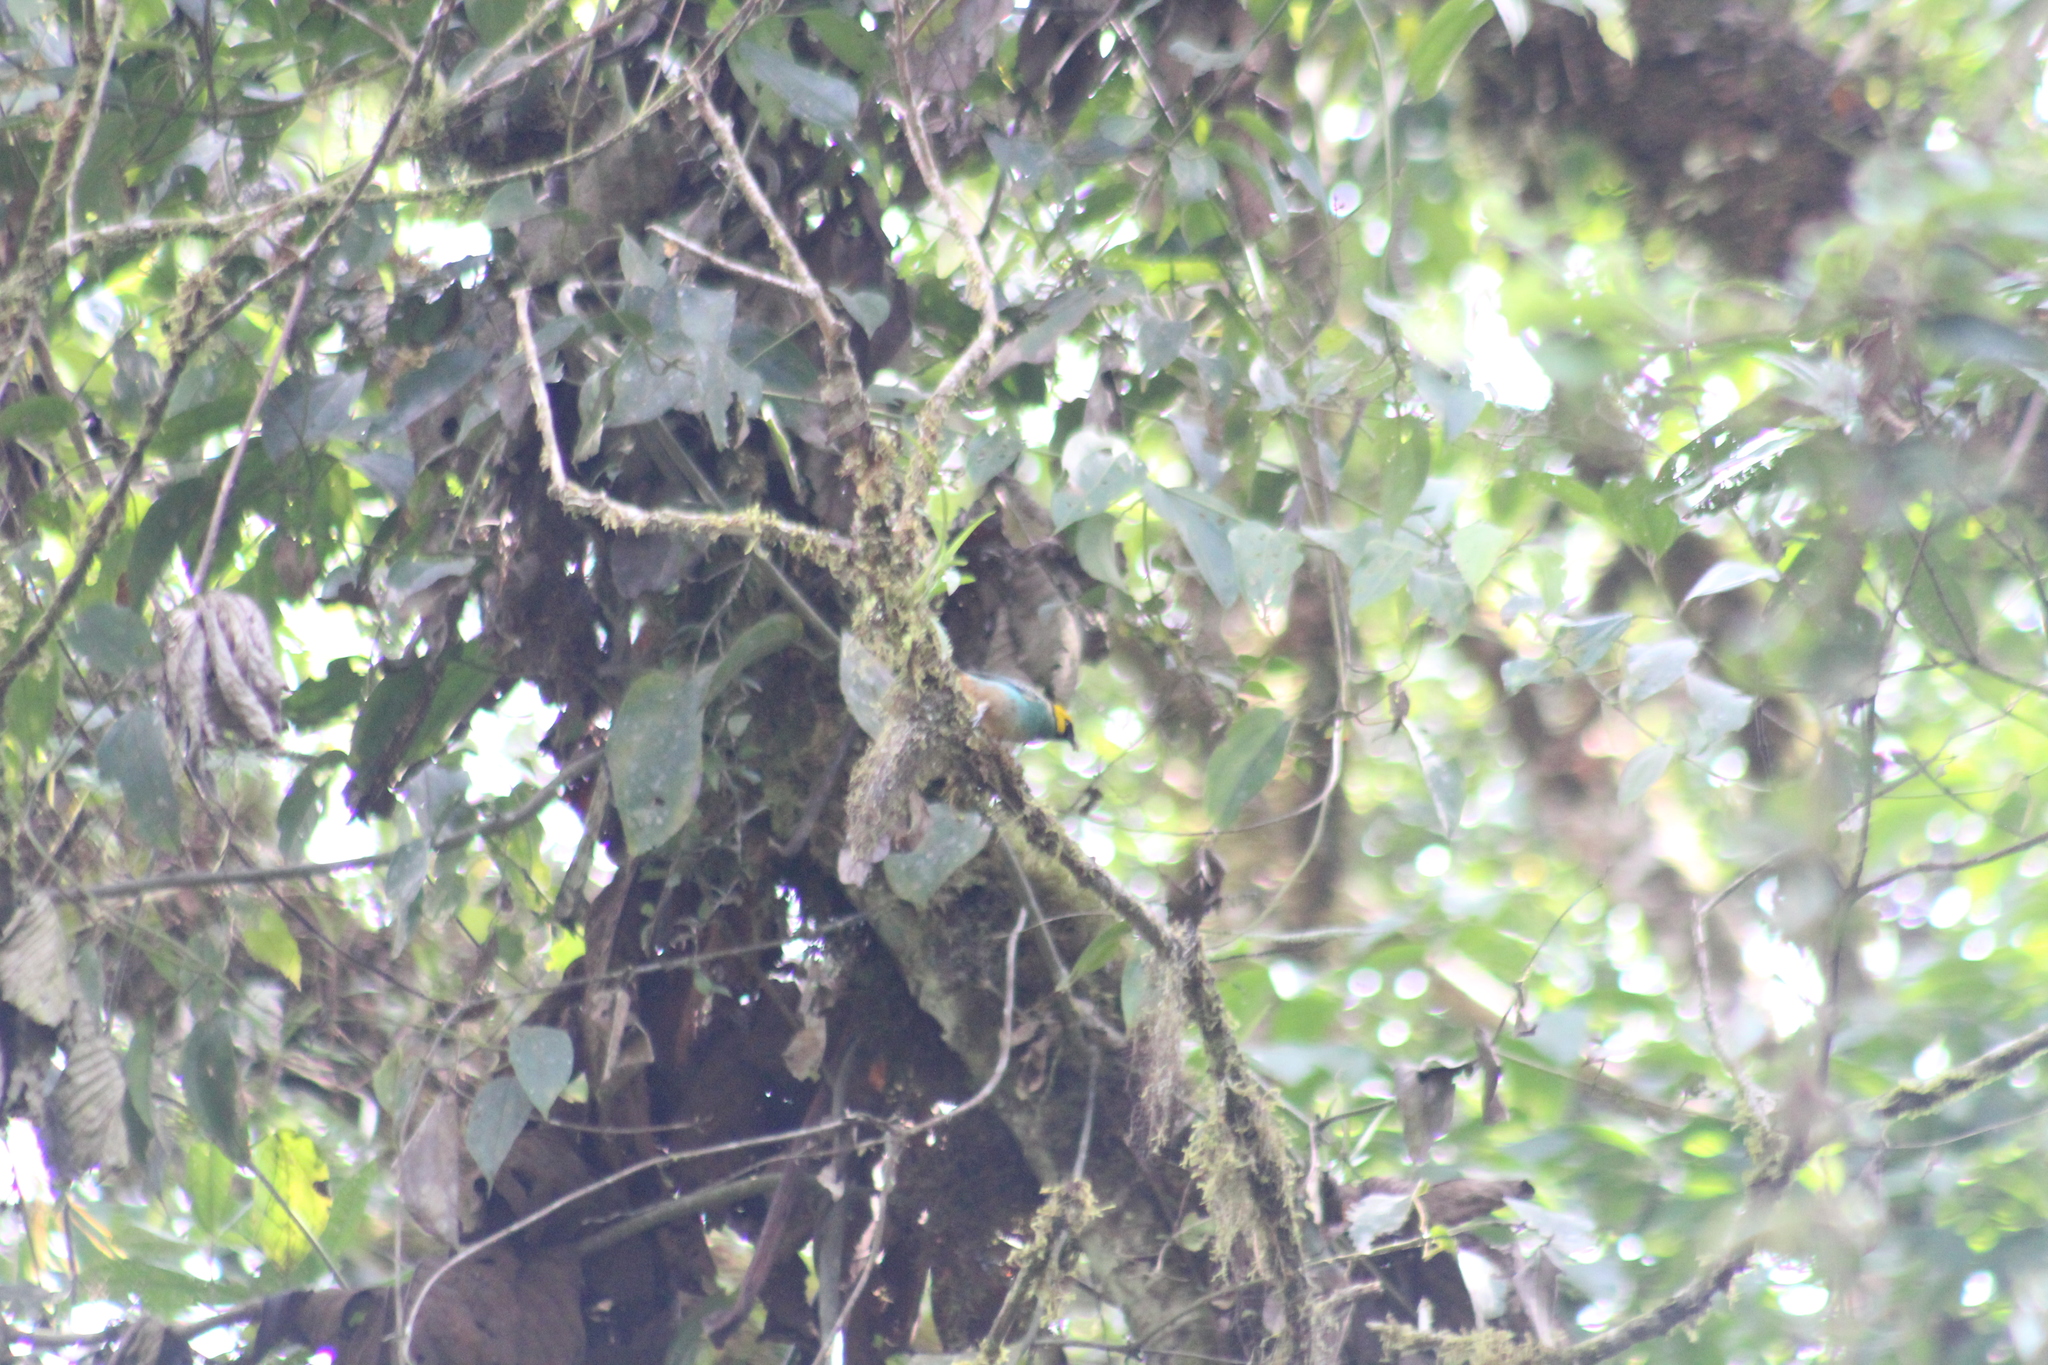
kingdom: Animalia
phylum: Chordata
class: Aves
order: Passeriformes
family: Thraupidae
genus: Tangara
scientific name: Tangara xanthocephala
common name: Saffron-crowned tanager
